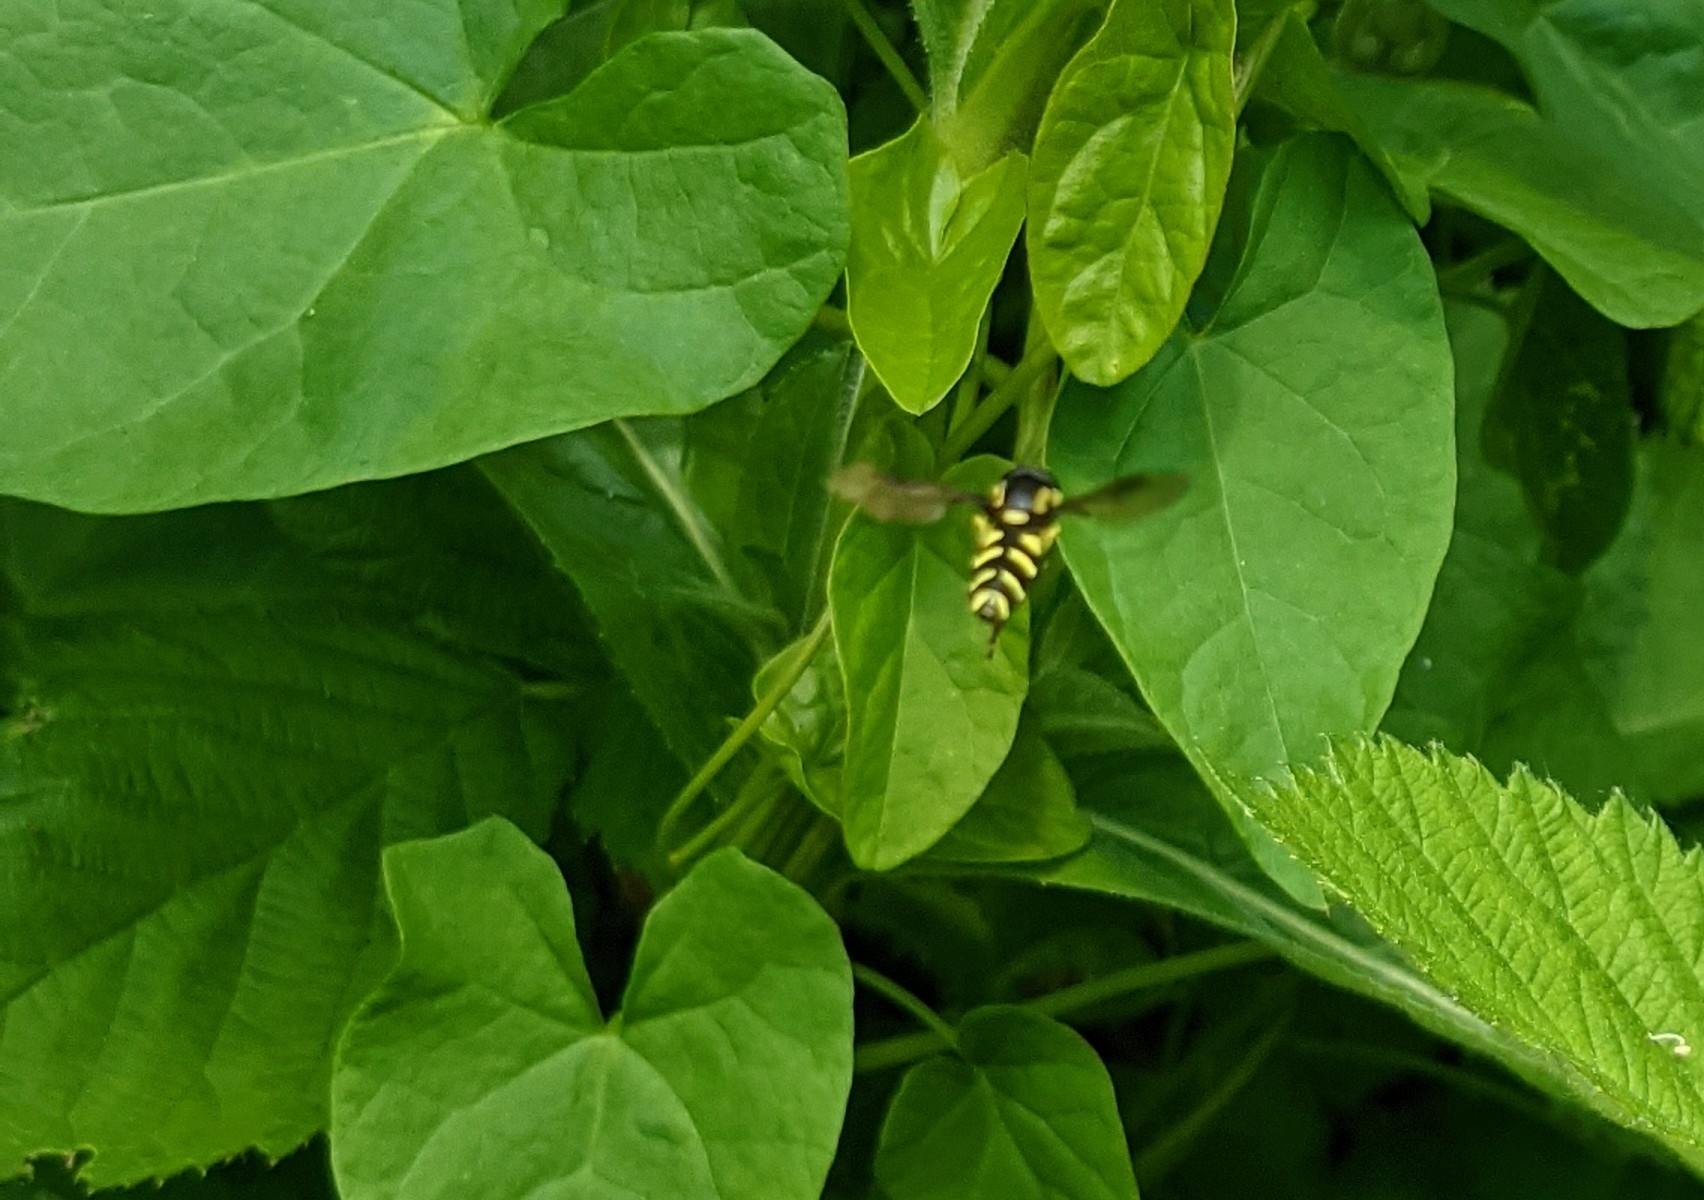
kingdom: Animalia
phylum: Arthropoda
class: Insecta
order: Diptera
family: Syrphidae
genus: Xanthogramma
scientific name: Xanthogramma
